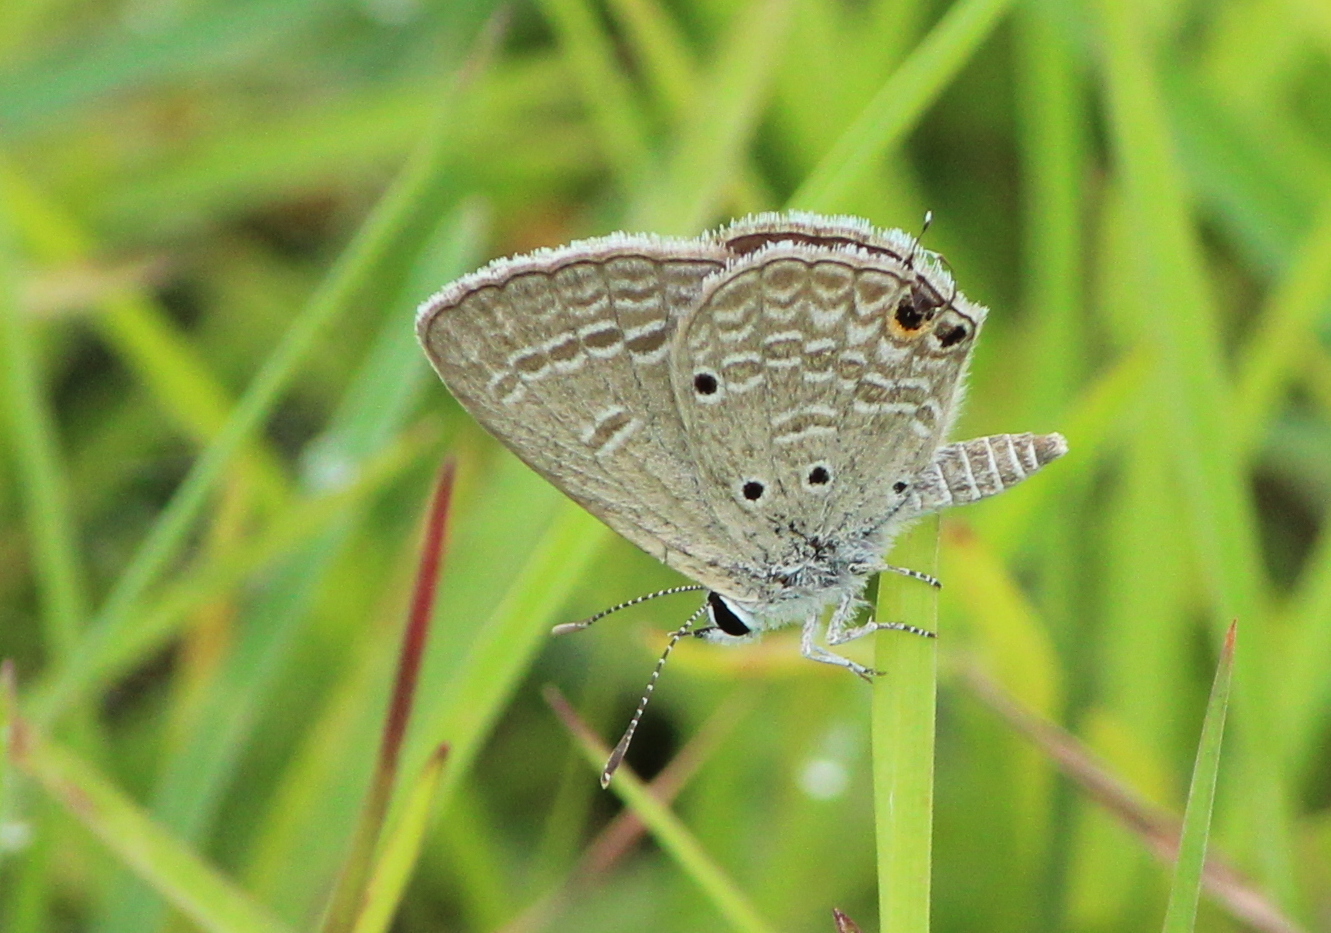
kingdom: Animalia
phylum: Arthropoda
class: Insecta
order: Lepidoptera
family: Lycaenidae
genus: Chilades
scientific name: Chilades parrhasius
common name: Small cupid
